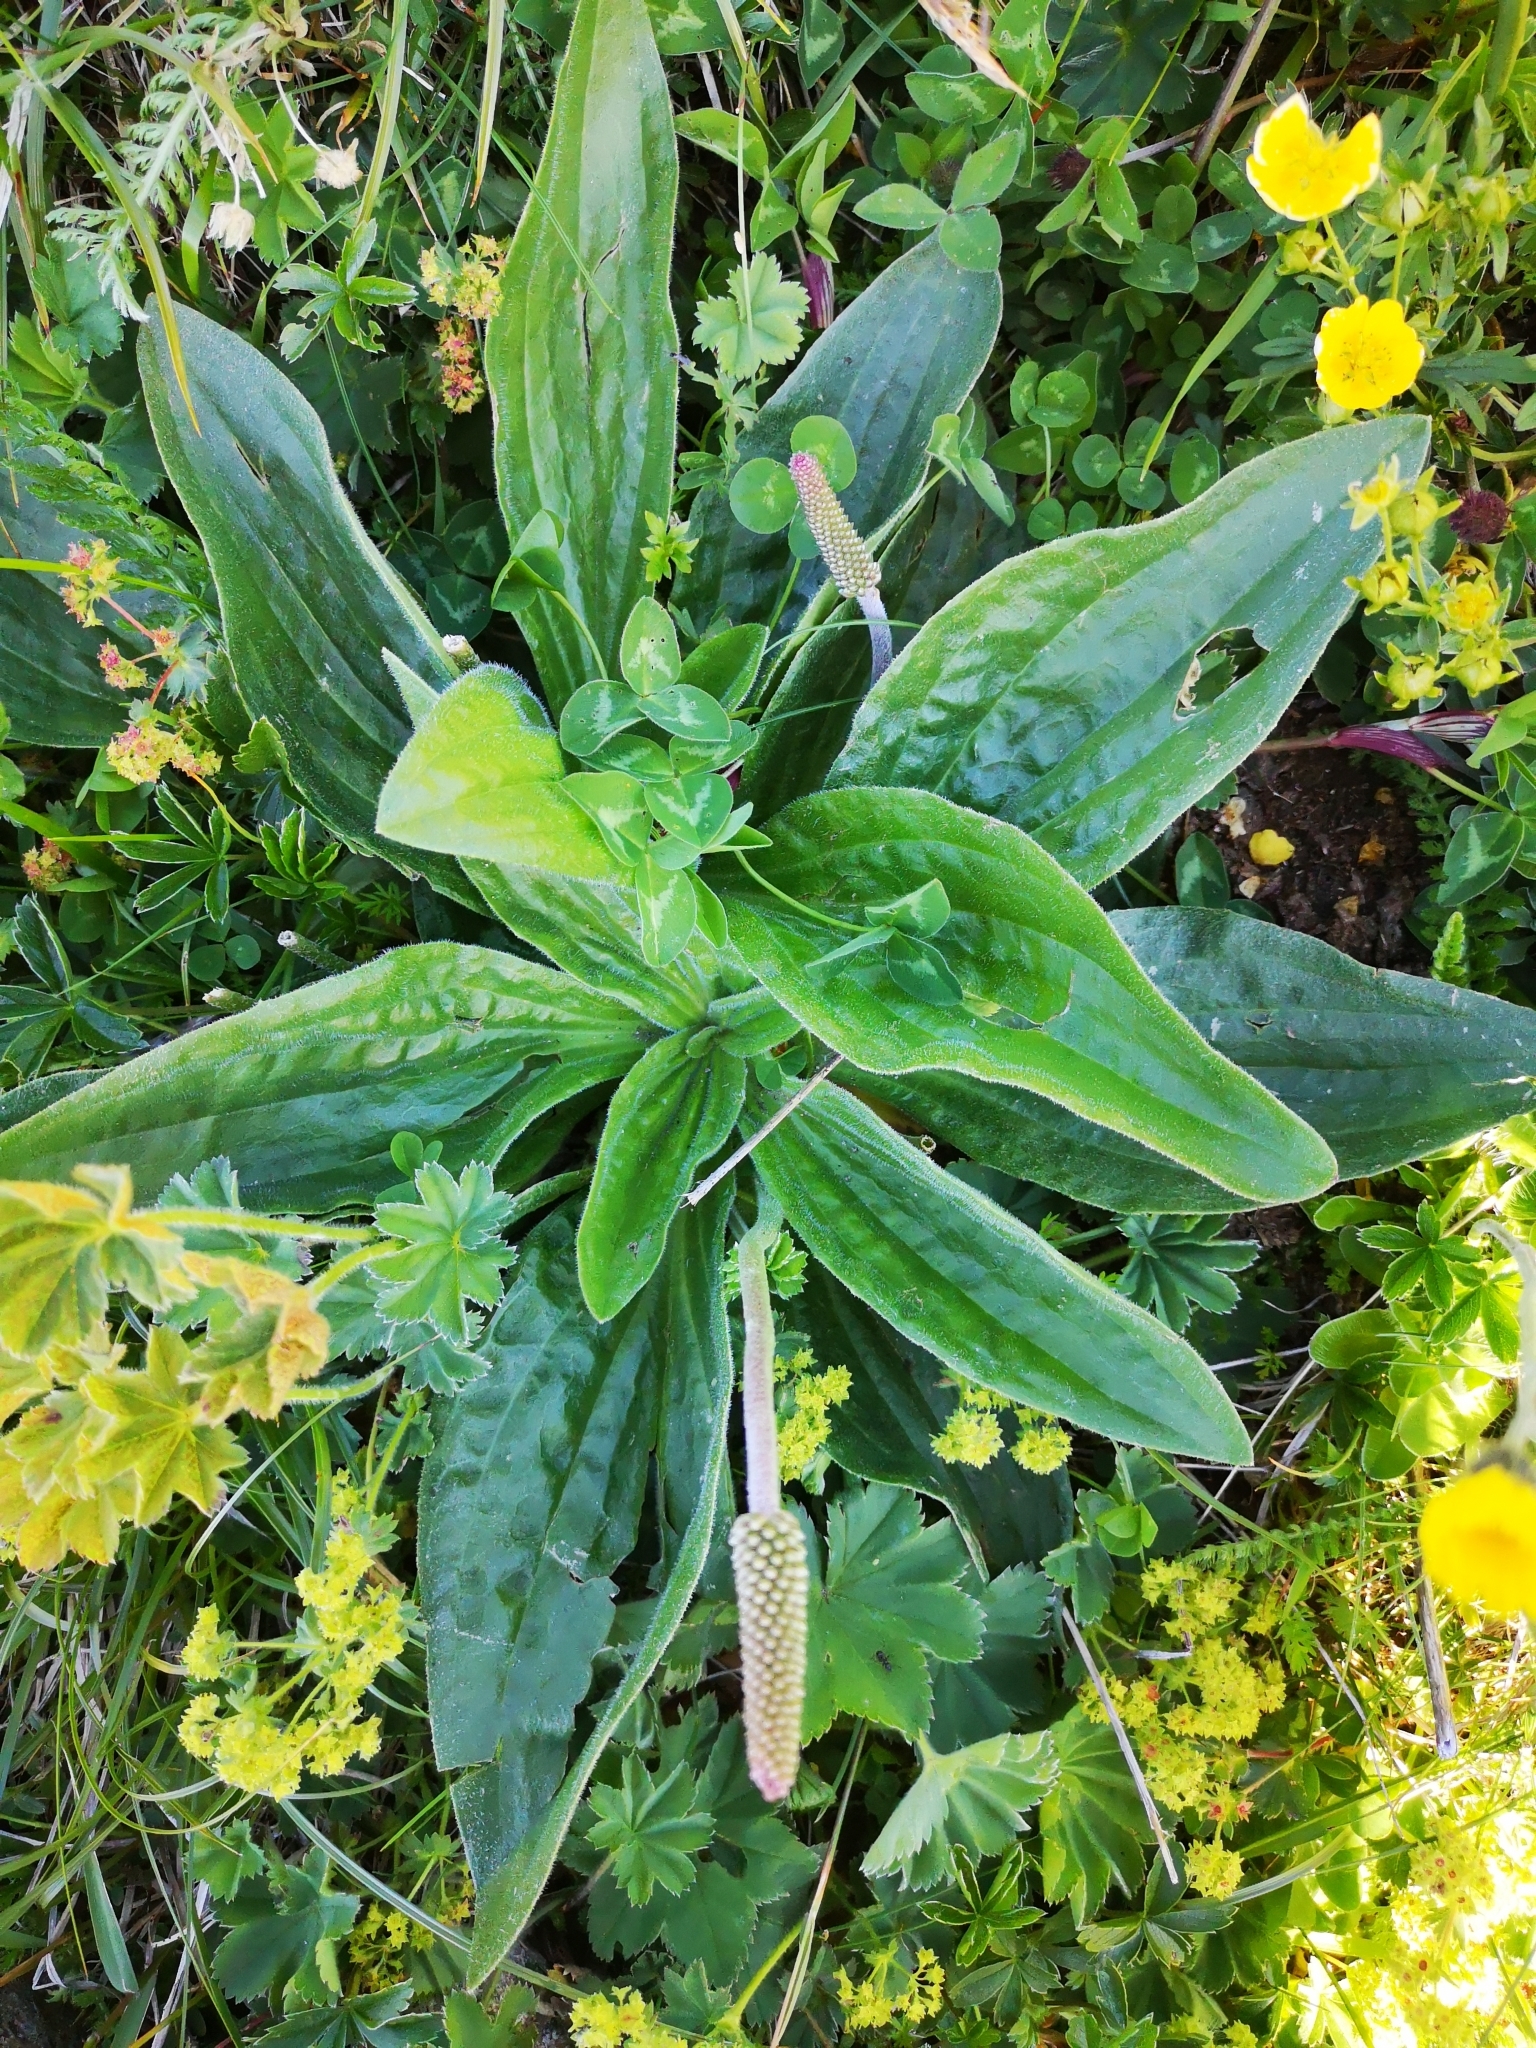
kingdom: Plantae
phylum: Tracheophyta
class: Magnoliopsida
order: Lamiales
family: Plantaginaceae
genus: Plantago
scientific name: Plantago media
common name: Hoary plantain
